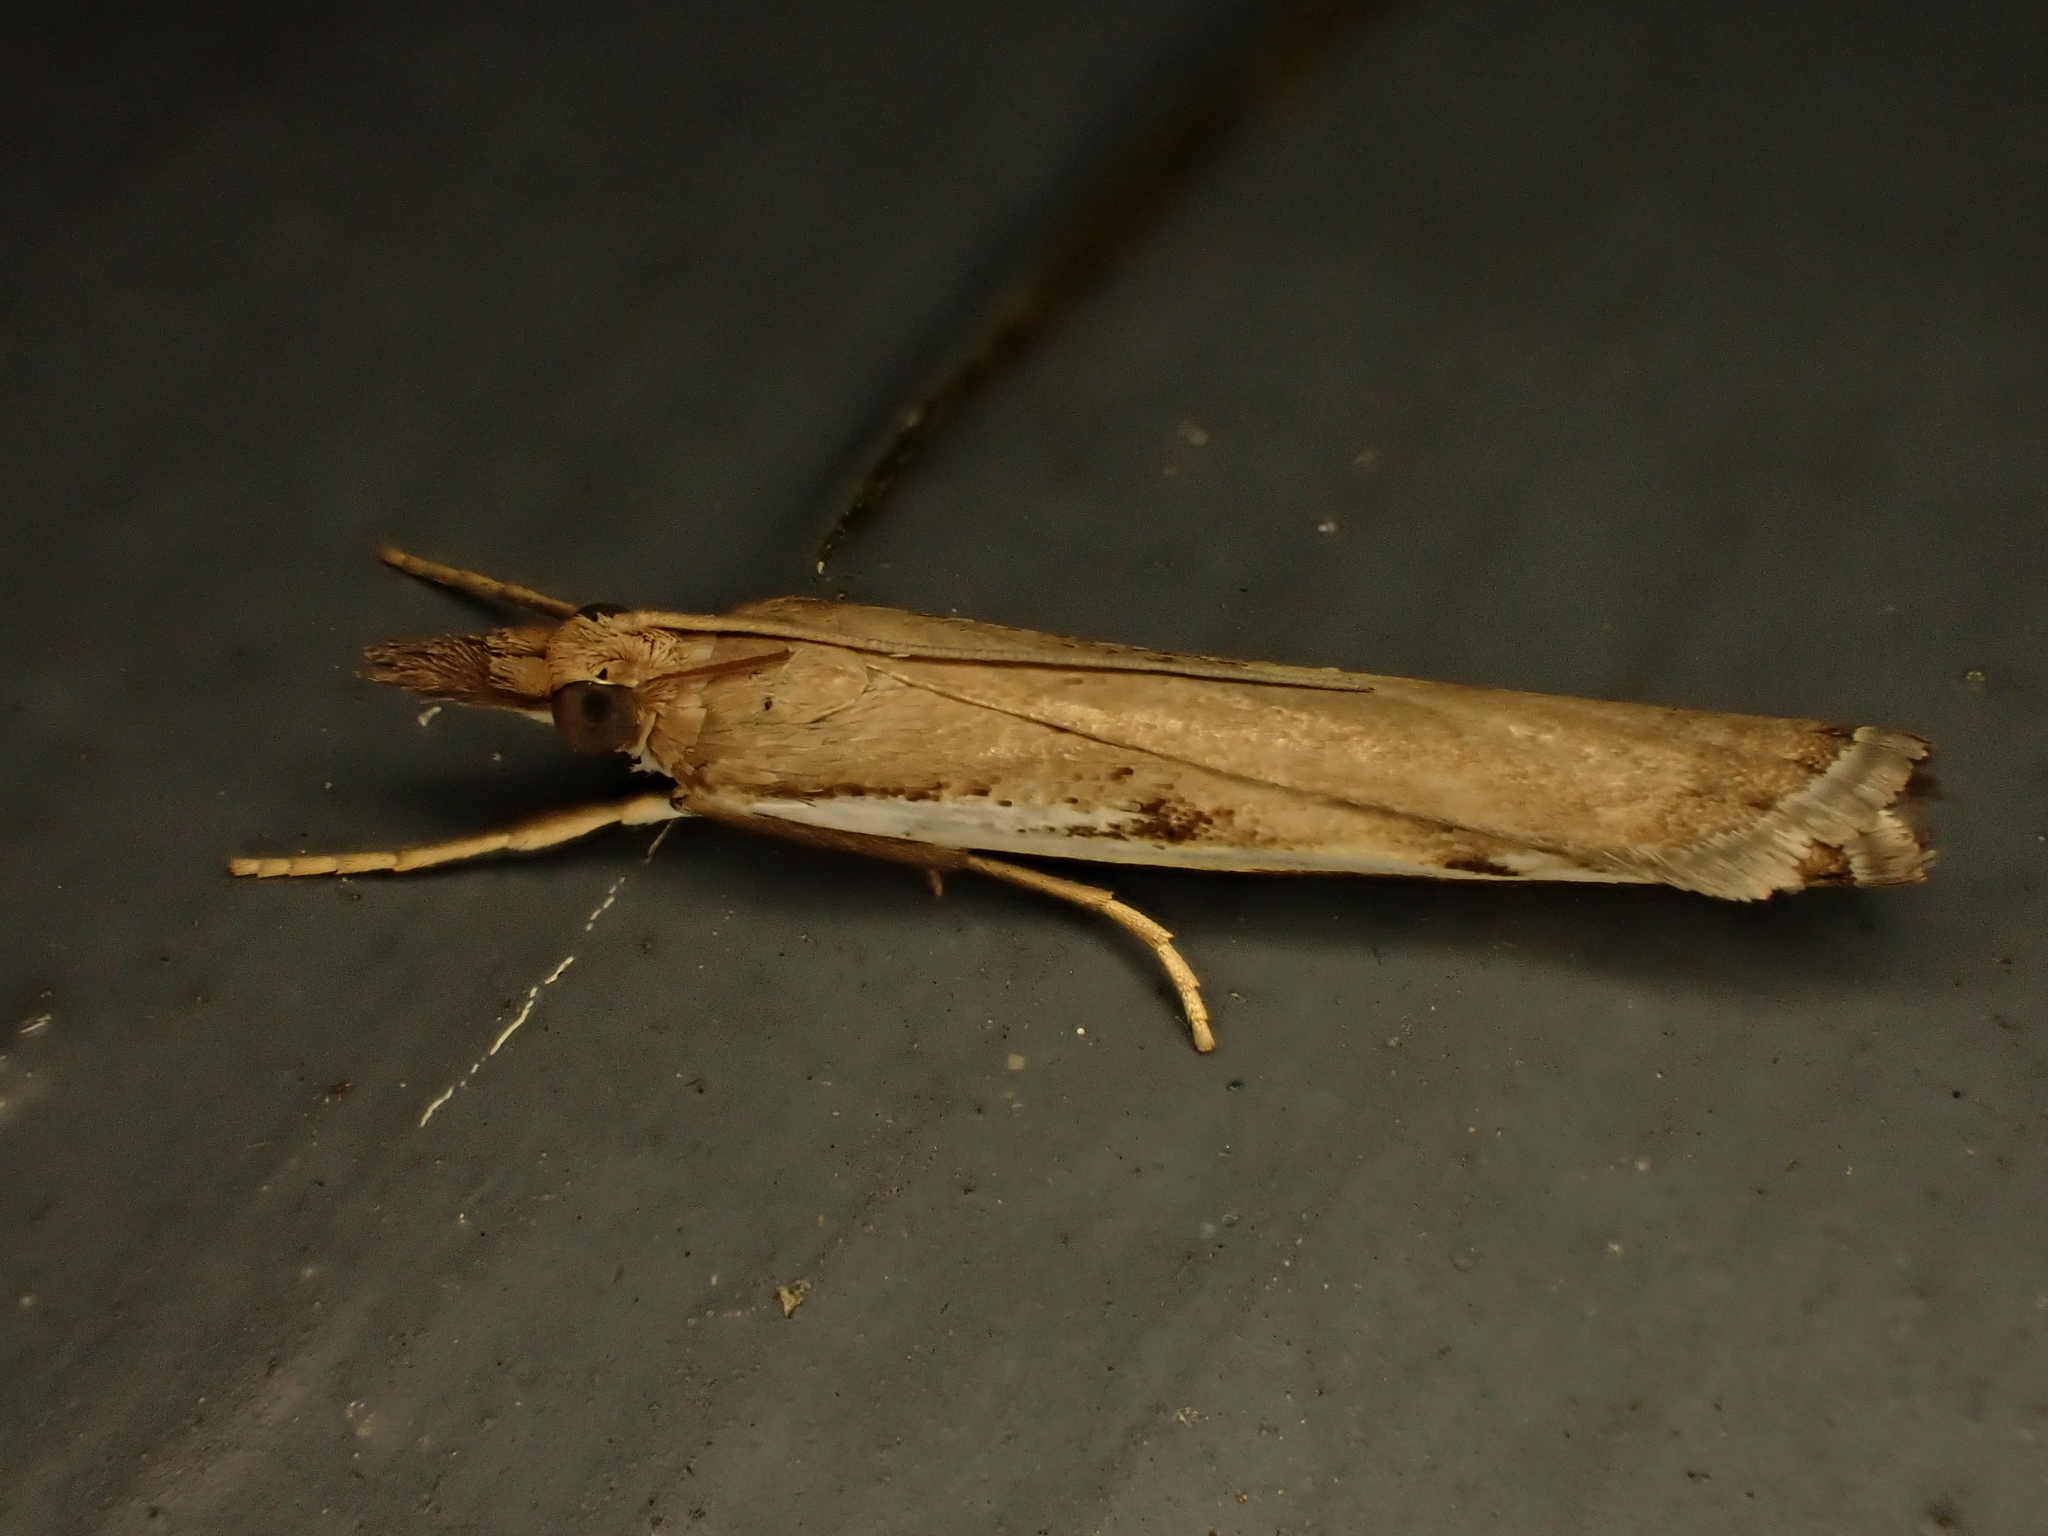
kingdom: Animalia
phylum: Arthropoda
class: Insecta
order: Lepidoptera
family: Crambidae
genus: Orocrambus
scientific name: Orocrambus flexuosellus
